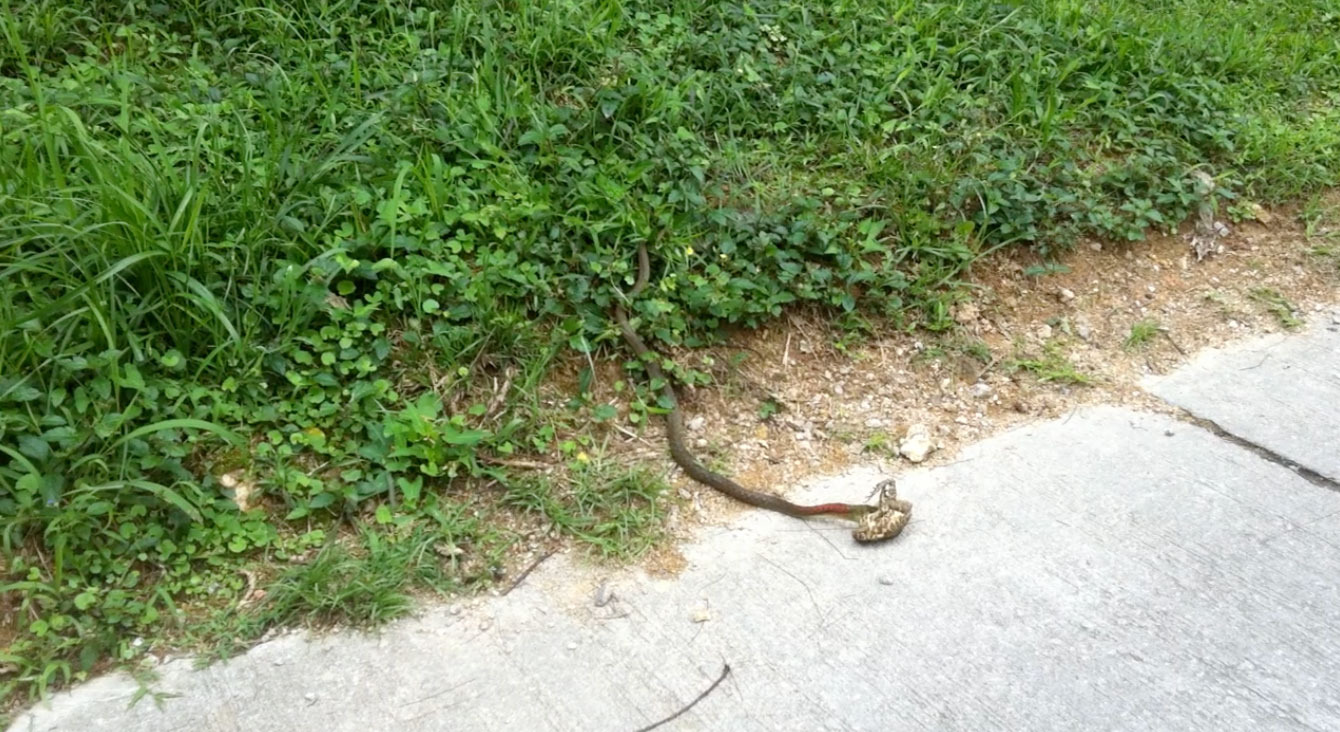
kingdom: Animalia
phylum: Chordata
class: Squamata
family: Colubridae
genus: Rhabdophis
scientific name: Rhabdophis helleri
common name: Heller’s red-necked keelback
